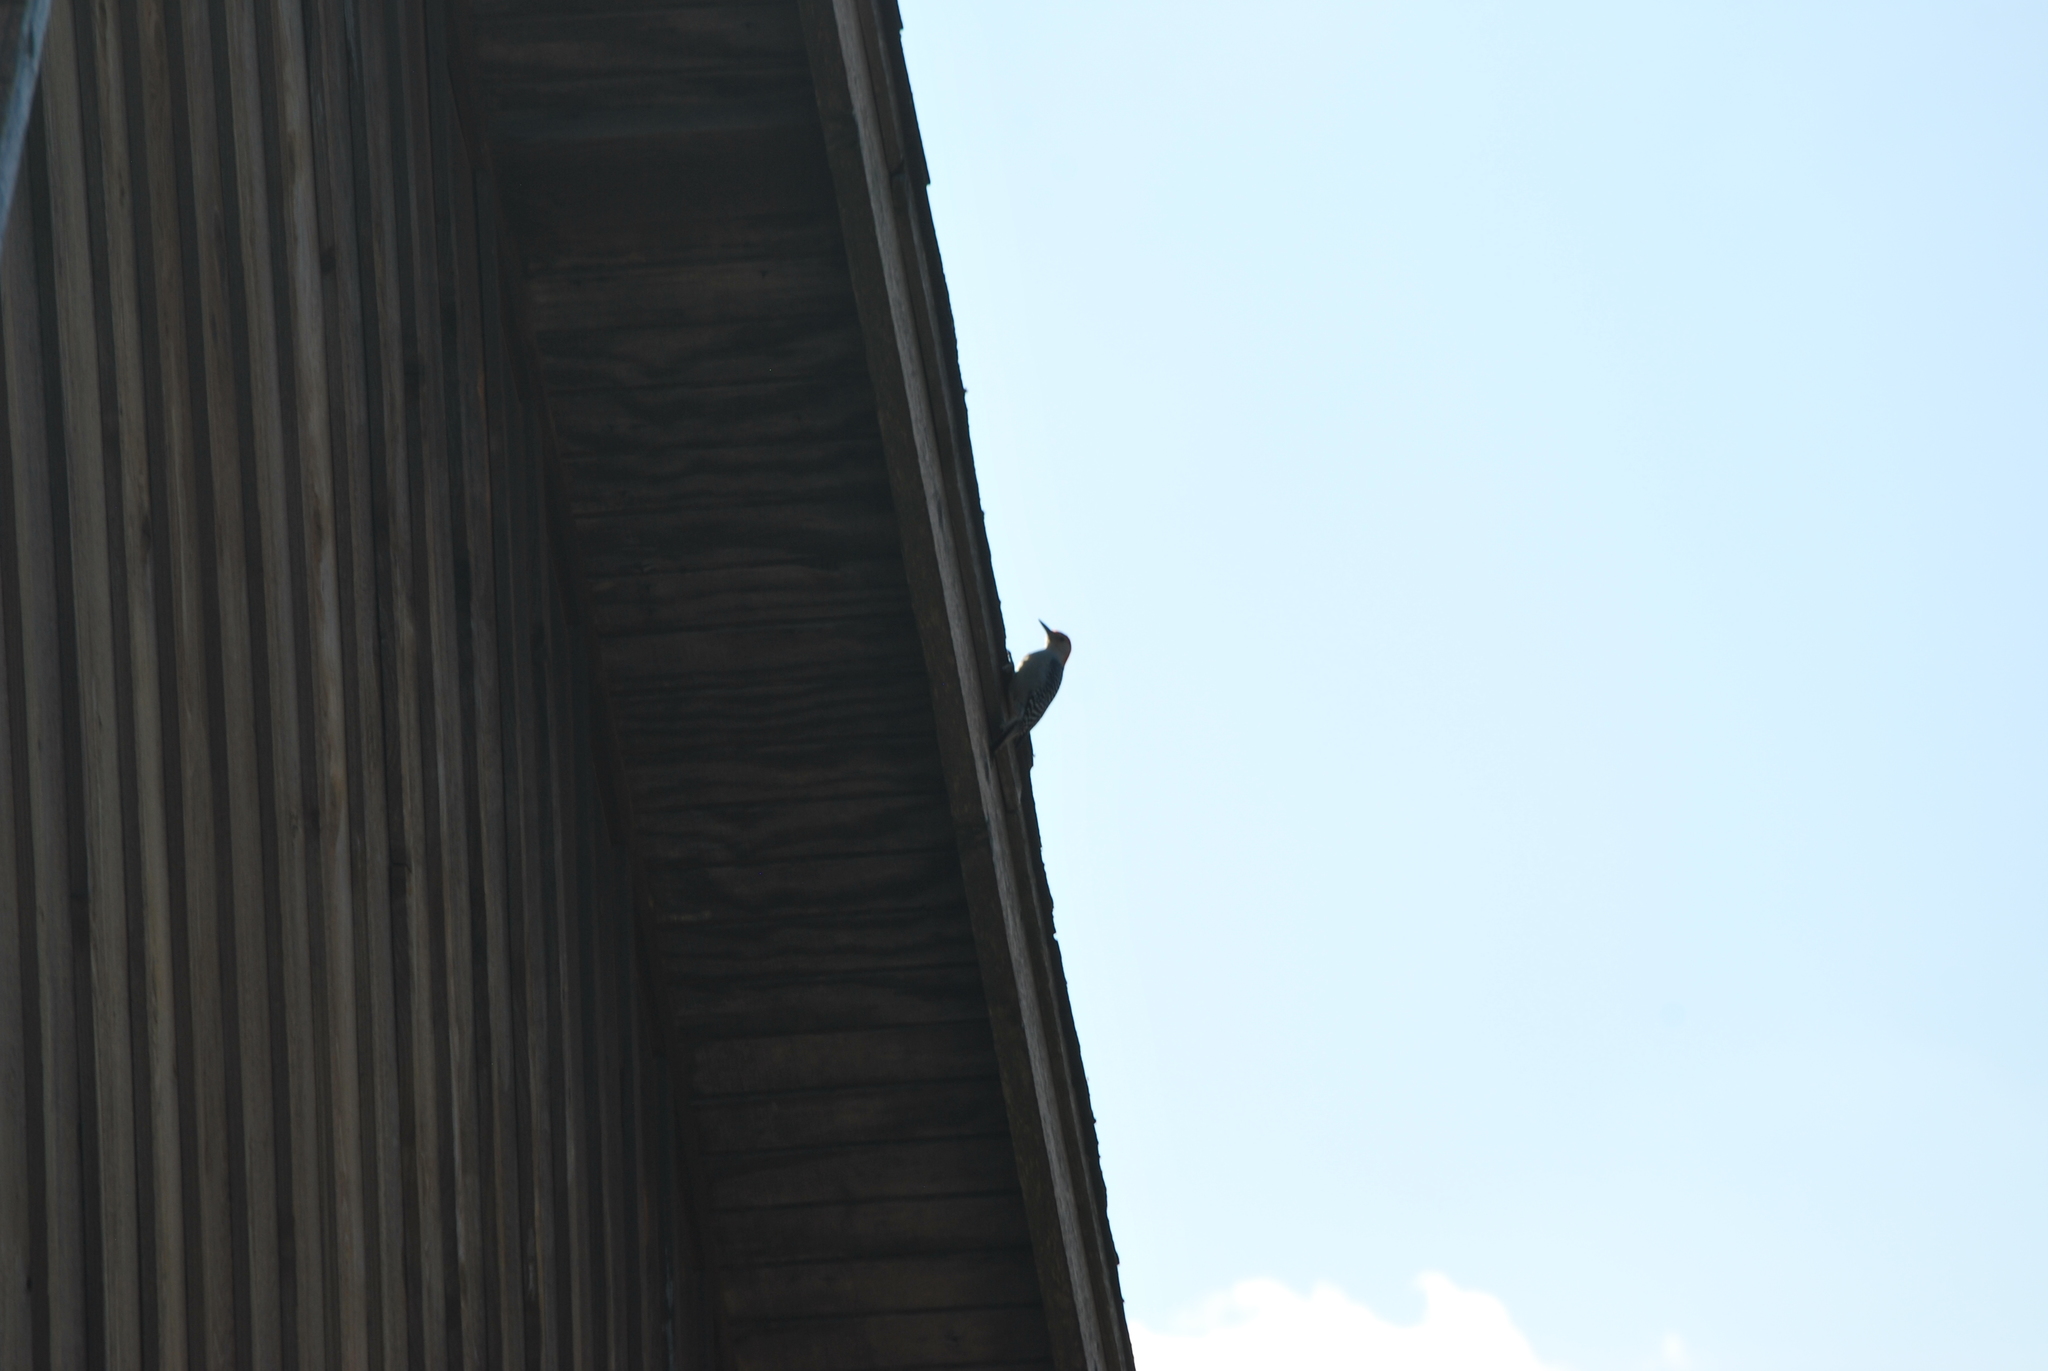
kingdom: Animalia
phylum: Chordata
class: Aves
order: Piciformes
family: Picidae
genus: Melanerpes
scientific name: Melanerpes carolinus
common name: Red-bellied woodpecker
